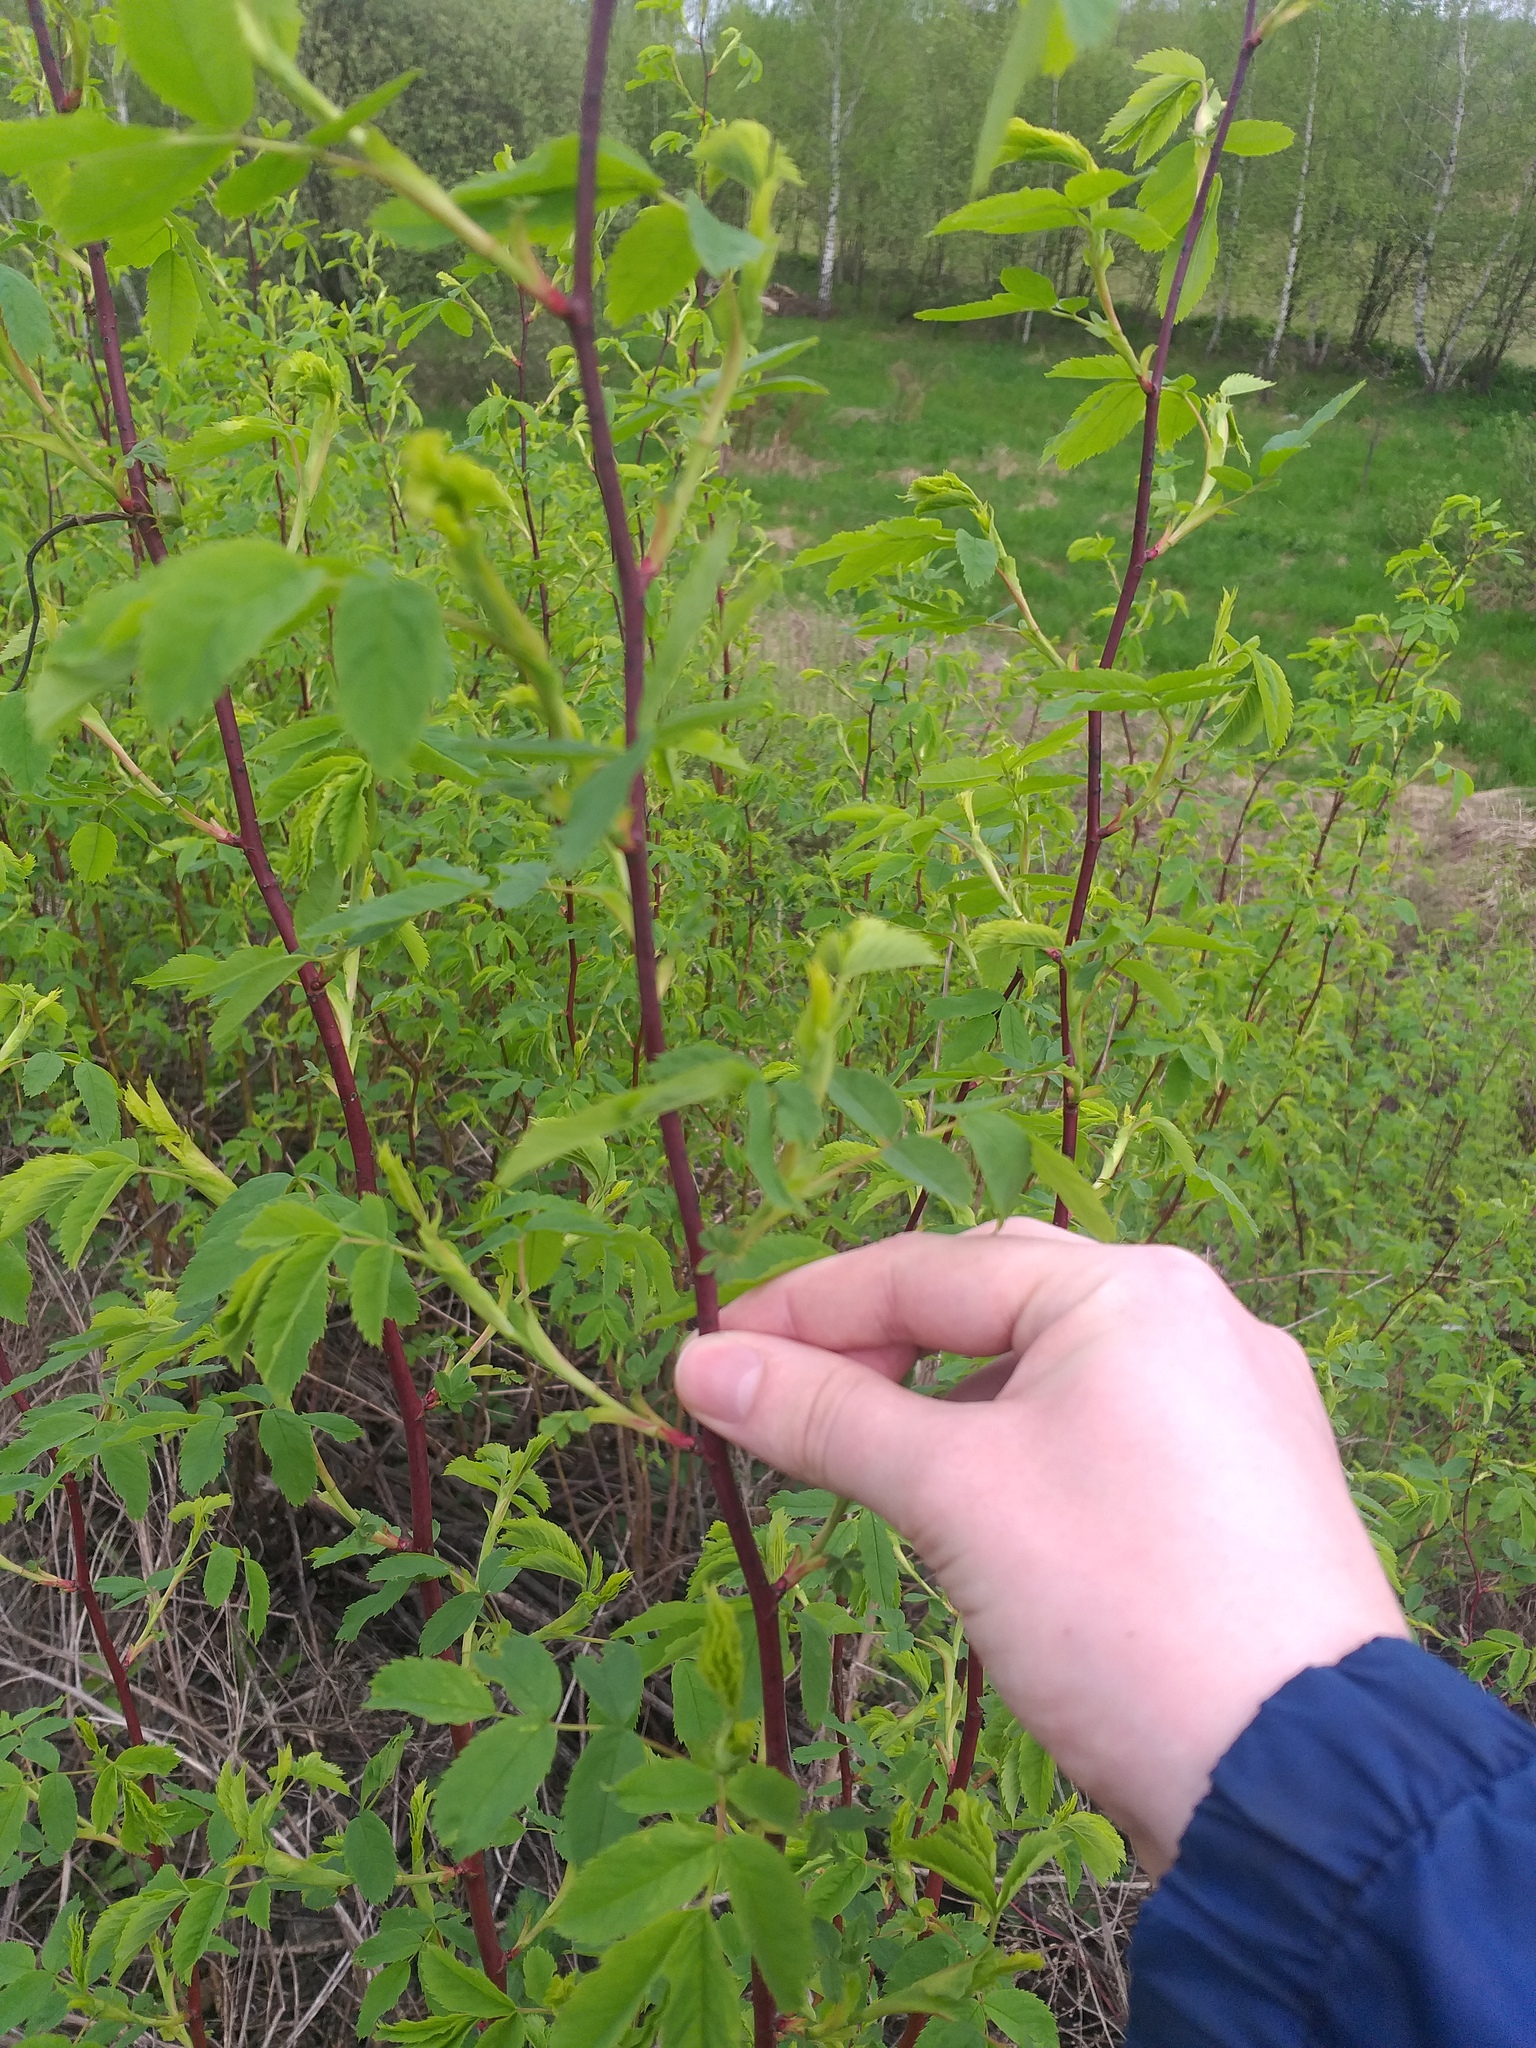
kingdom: Plantae
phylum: Tracheophyta
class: Magnoliopsida
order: Rosales
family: Rosaceae
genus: Rosa
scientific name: Rosa glabrifolia
